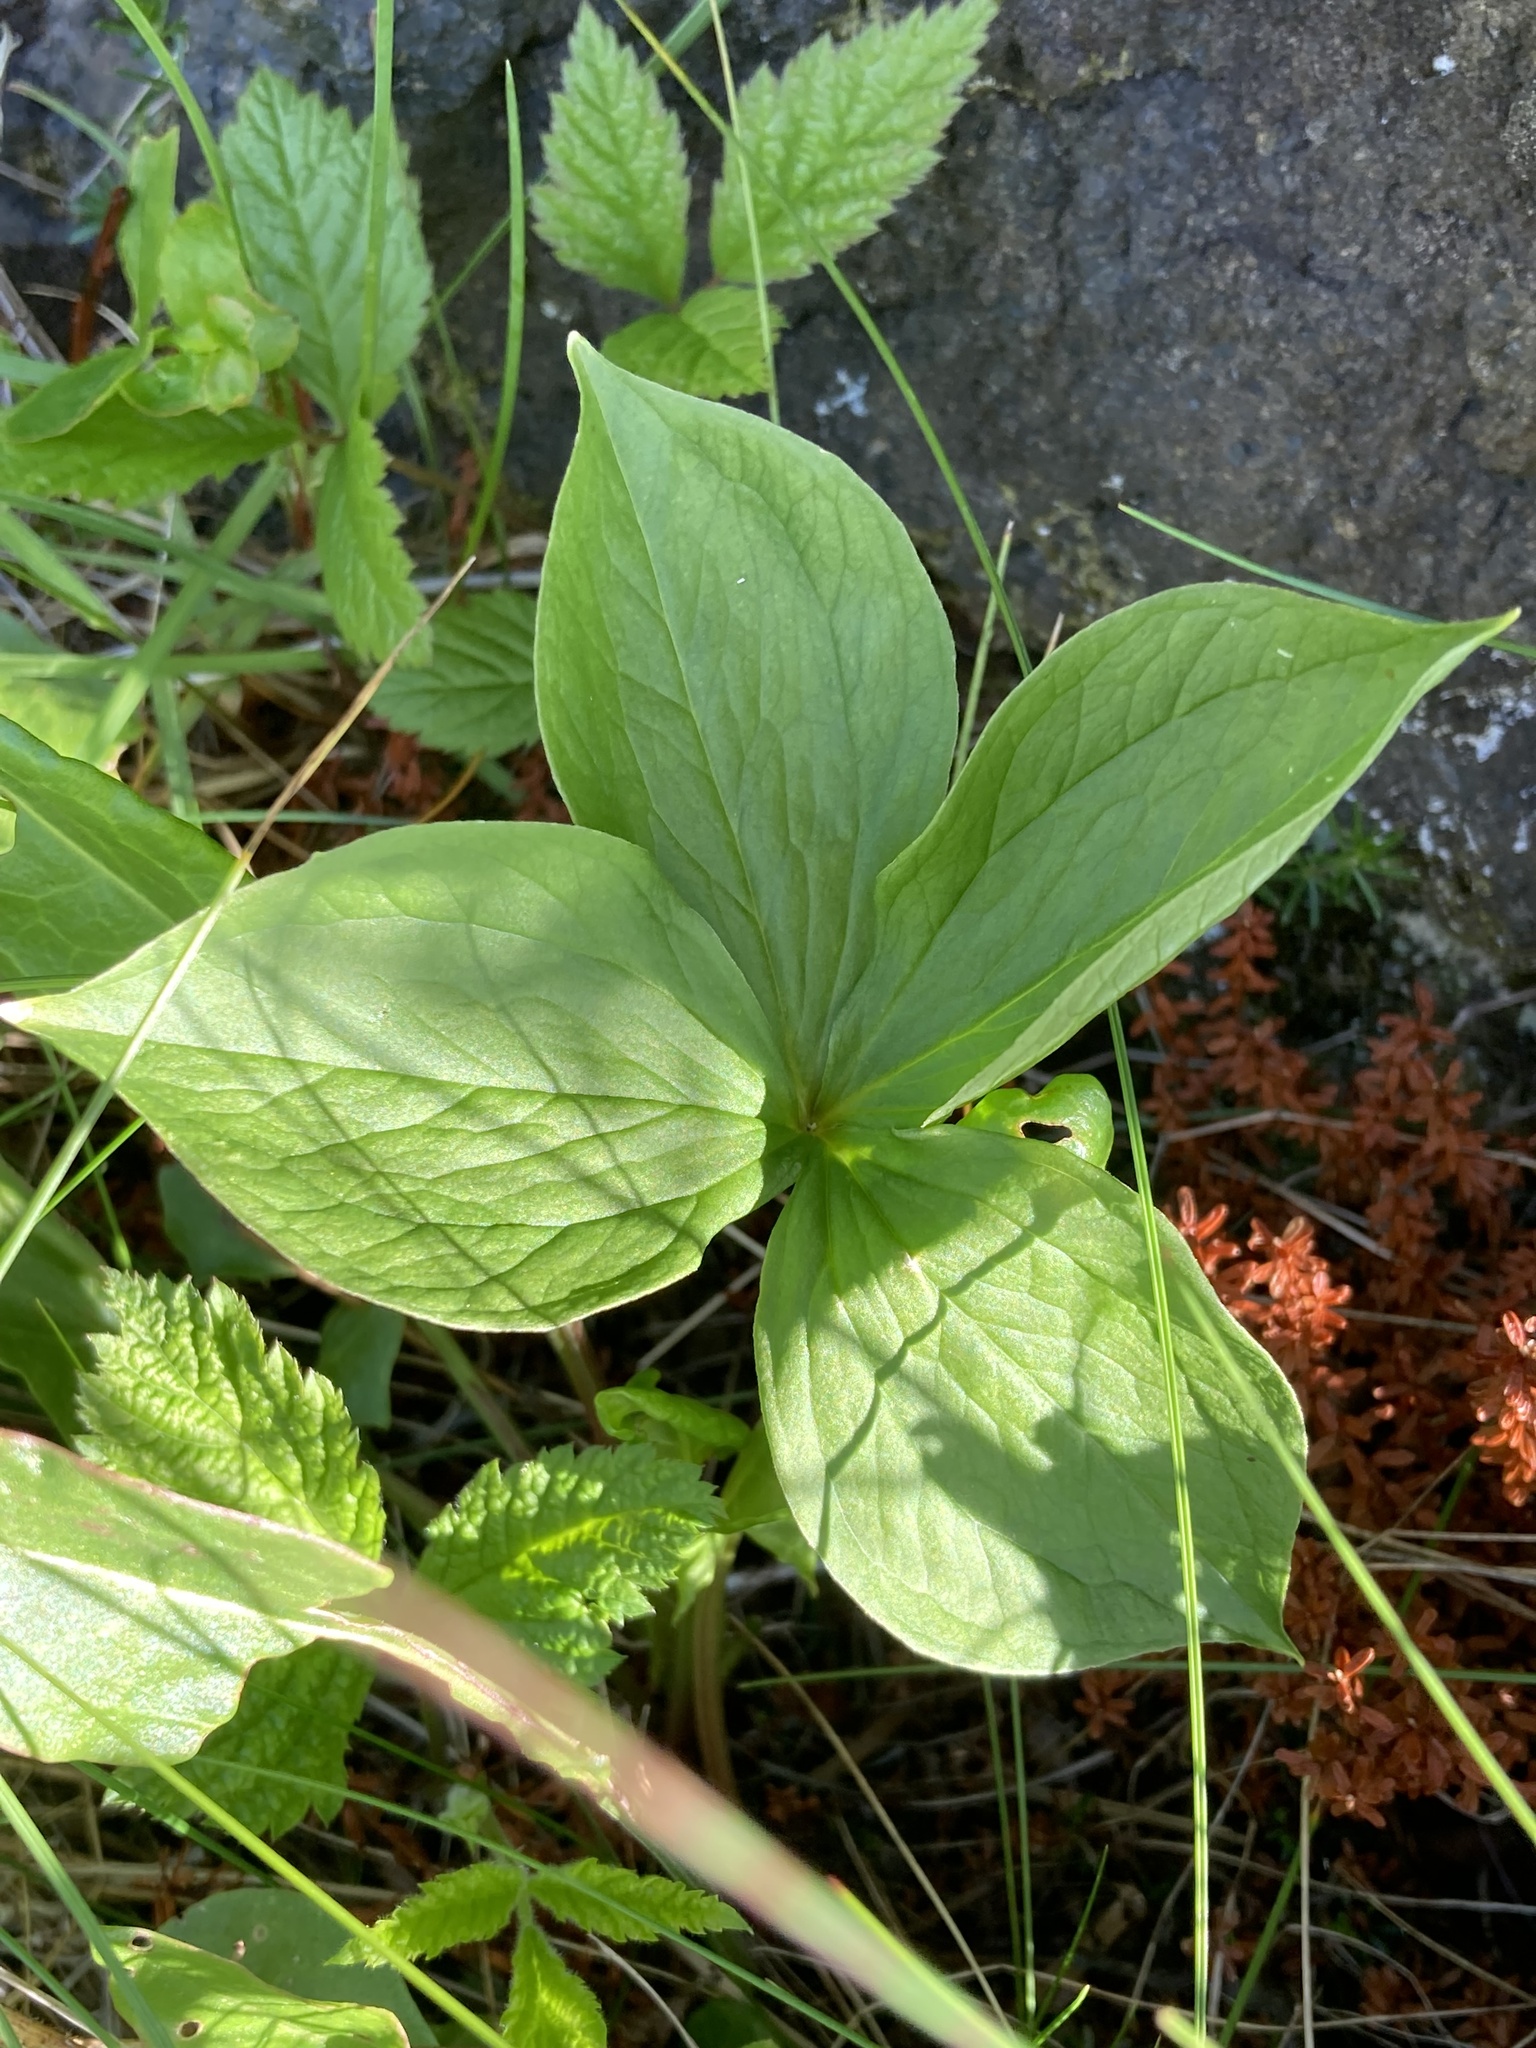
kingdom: Plantae
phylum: Tracheophyta
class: Liliopsida
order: Liliales
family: Melanthiaceae
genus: Paris
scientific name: Paris quadrifolia
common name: Herb-paris
